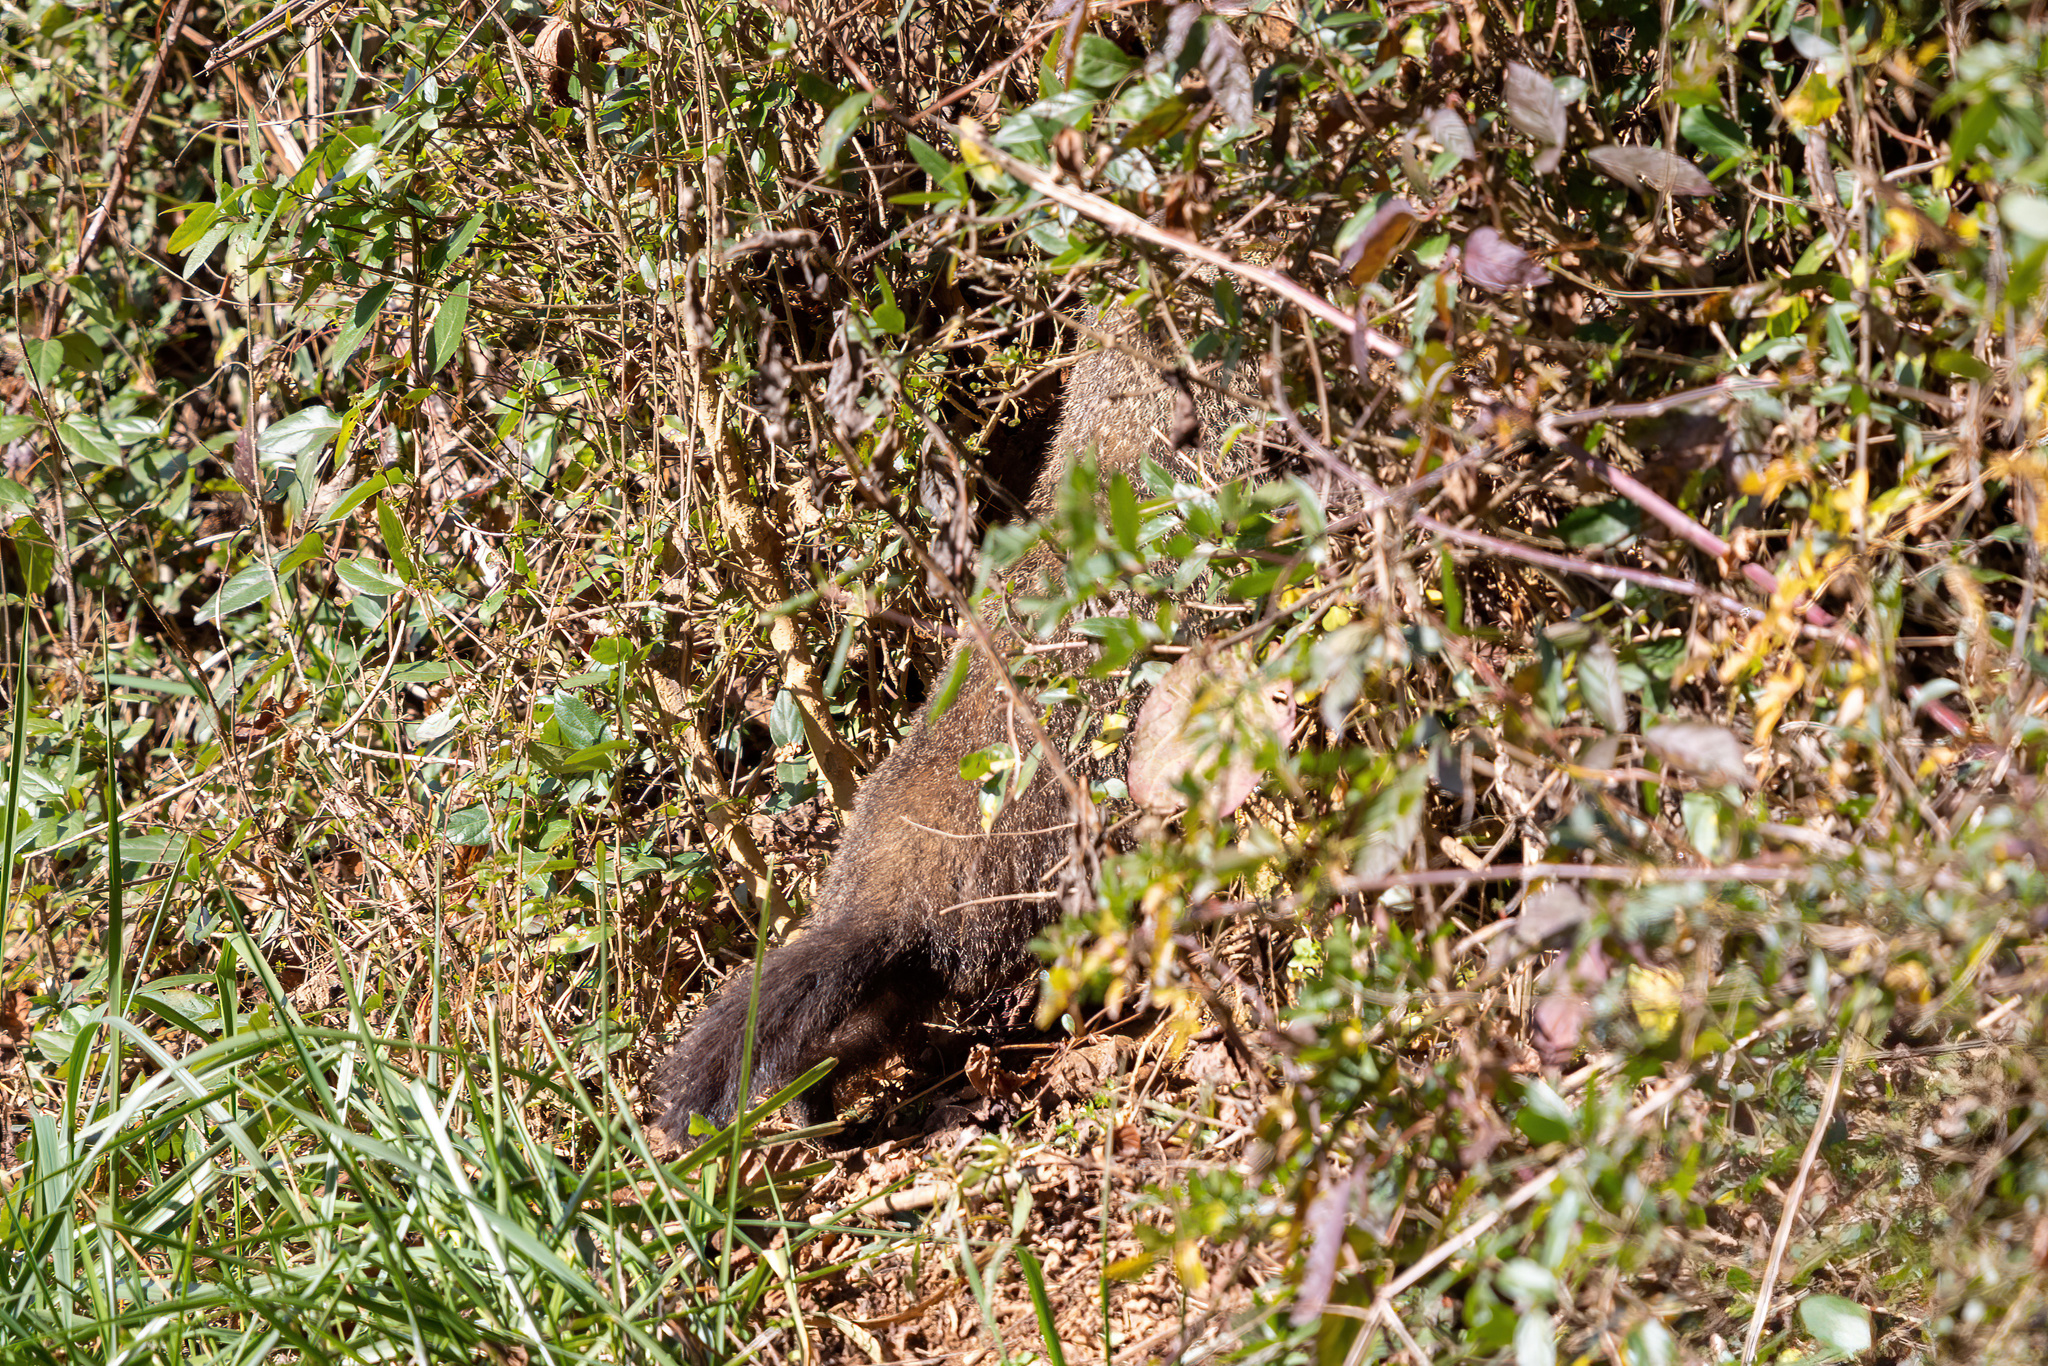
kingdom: Animalia
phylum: Chordata
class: Mammalia
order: Rodentia
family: Sciuridae
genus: Marmota
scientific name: Marmota monax
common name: Groundhog
